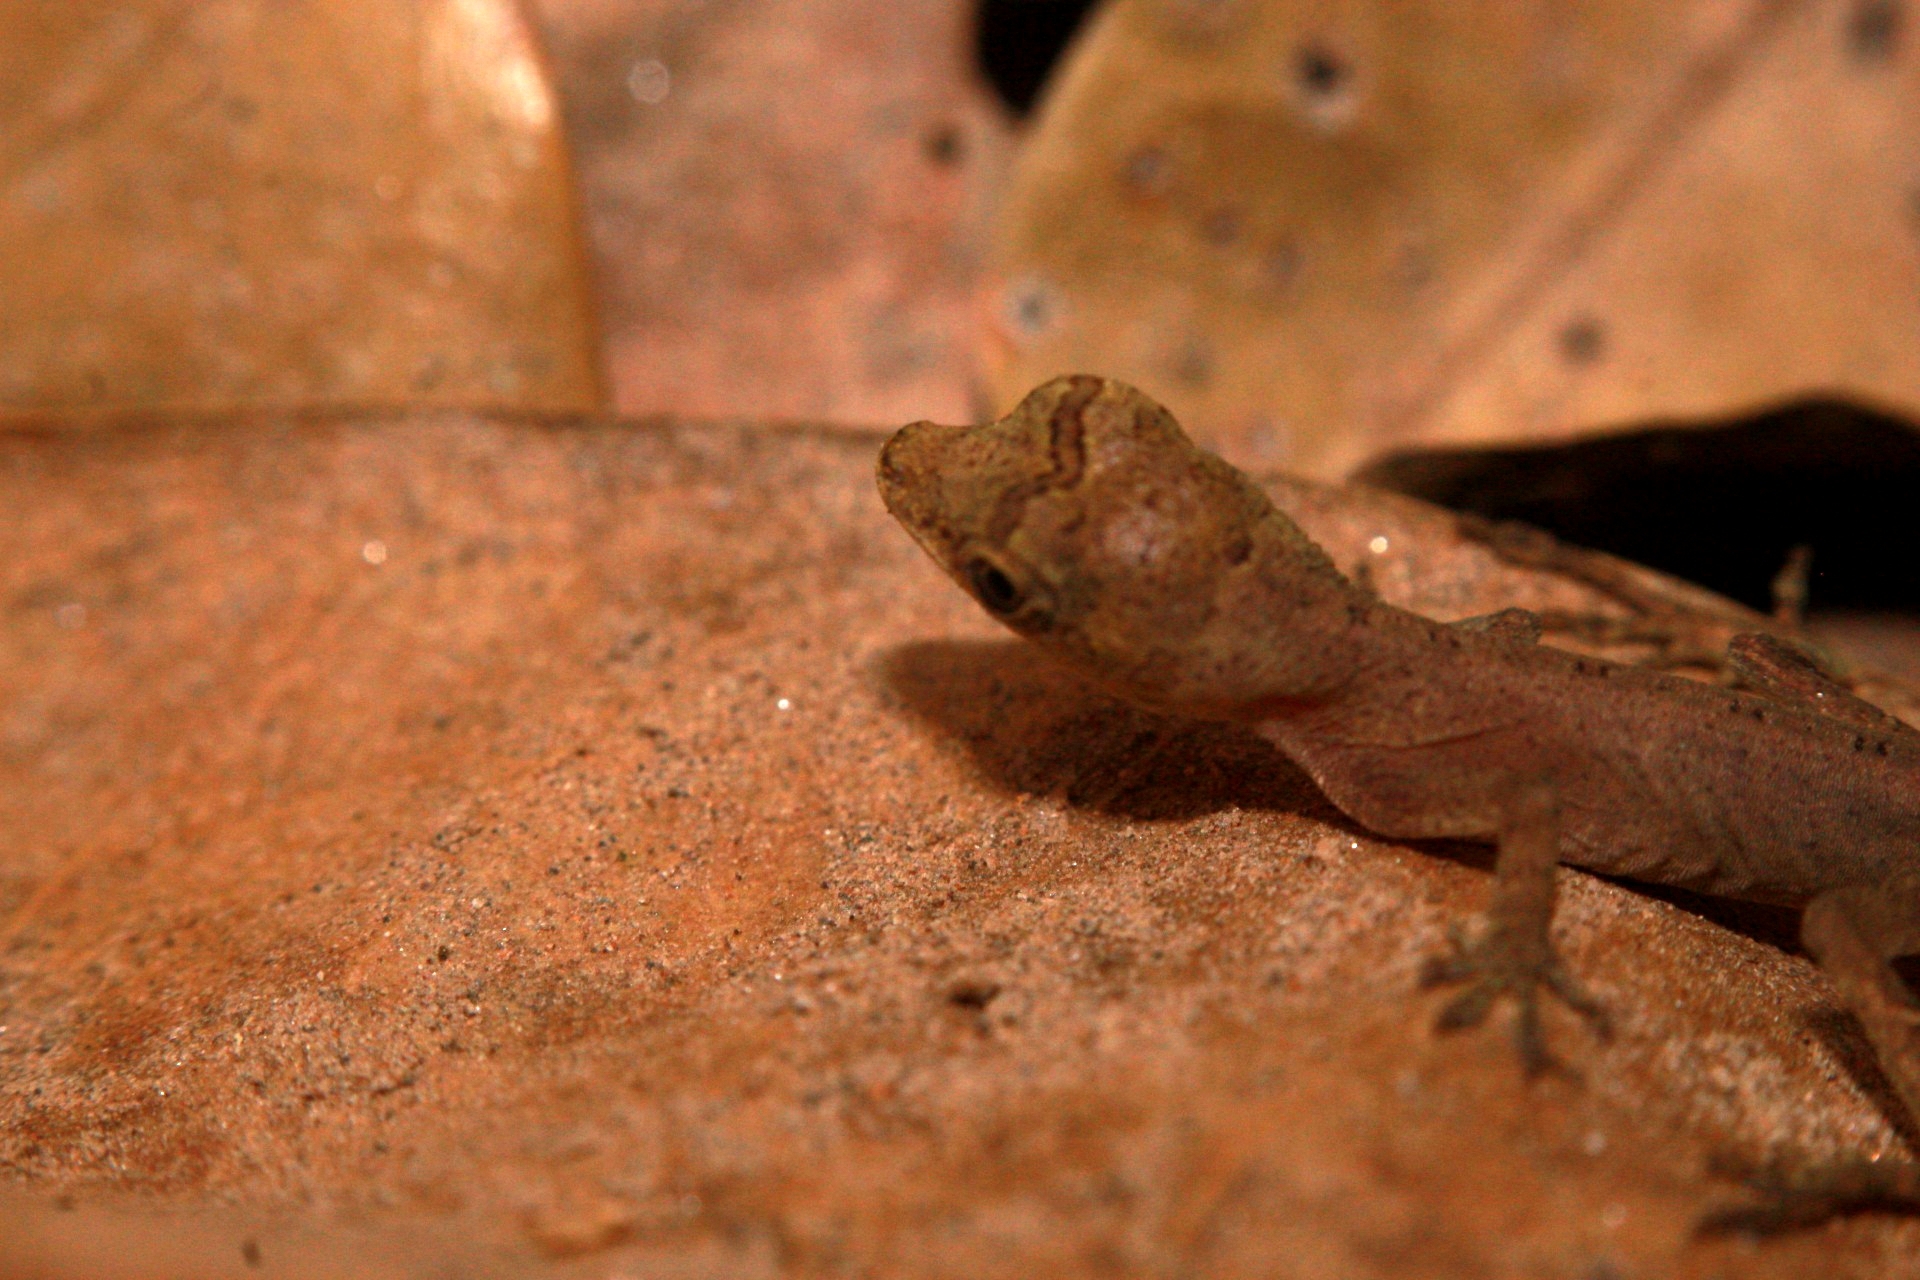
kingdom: Animalia
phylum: Chordata
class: Squamata
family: Dactyloidae
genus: Anolis
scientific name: Anolis trachyderma
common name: Common forest anole
